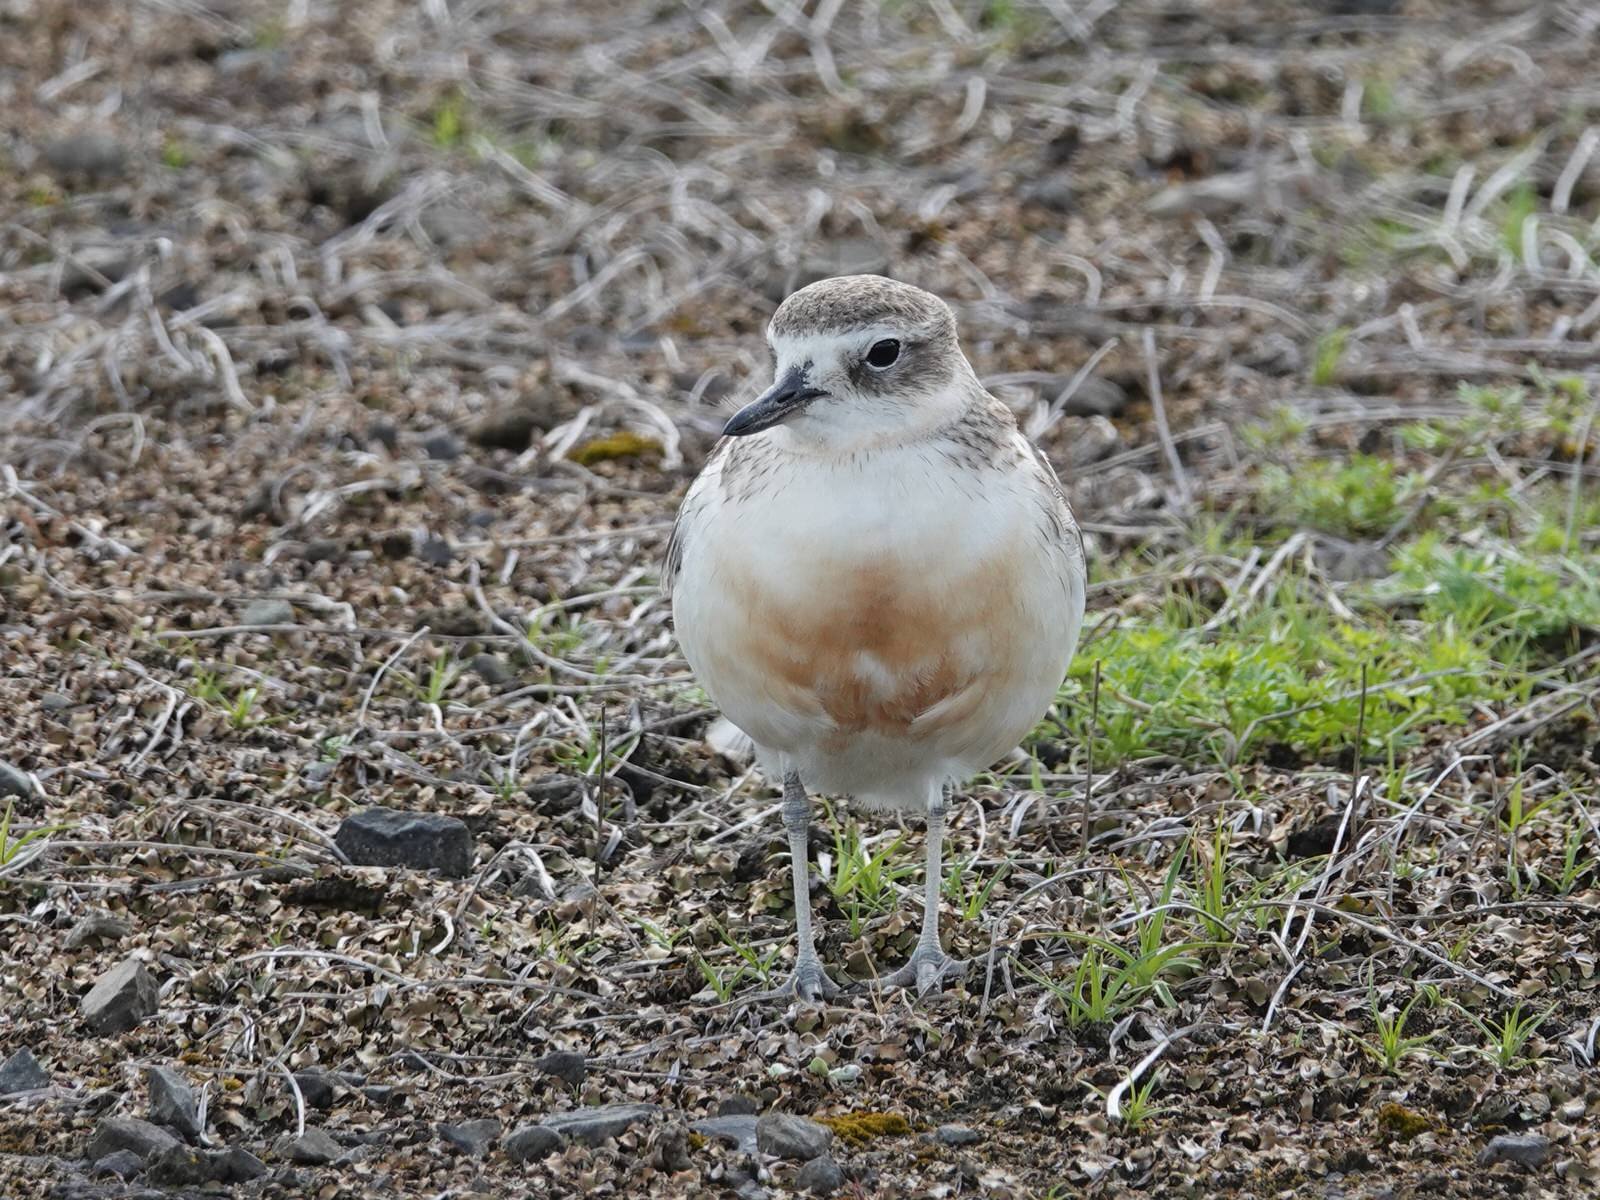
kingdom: Animalia
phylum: Chordata
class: Aves
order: Charadriiformes
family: Charadriidae
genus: Anarhynchus
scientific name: Anarhynchus
